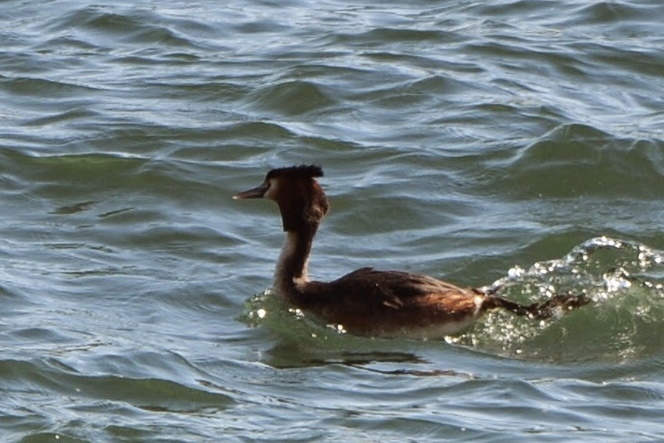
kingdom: Animalia
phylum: Chordata
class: Aves
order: Podicipediformes
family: Podicipedidae
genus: Podiceps
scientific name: Podiceps cristatus
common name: Great crested grebe
